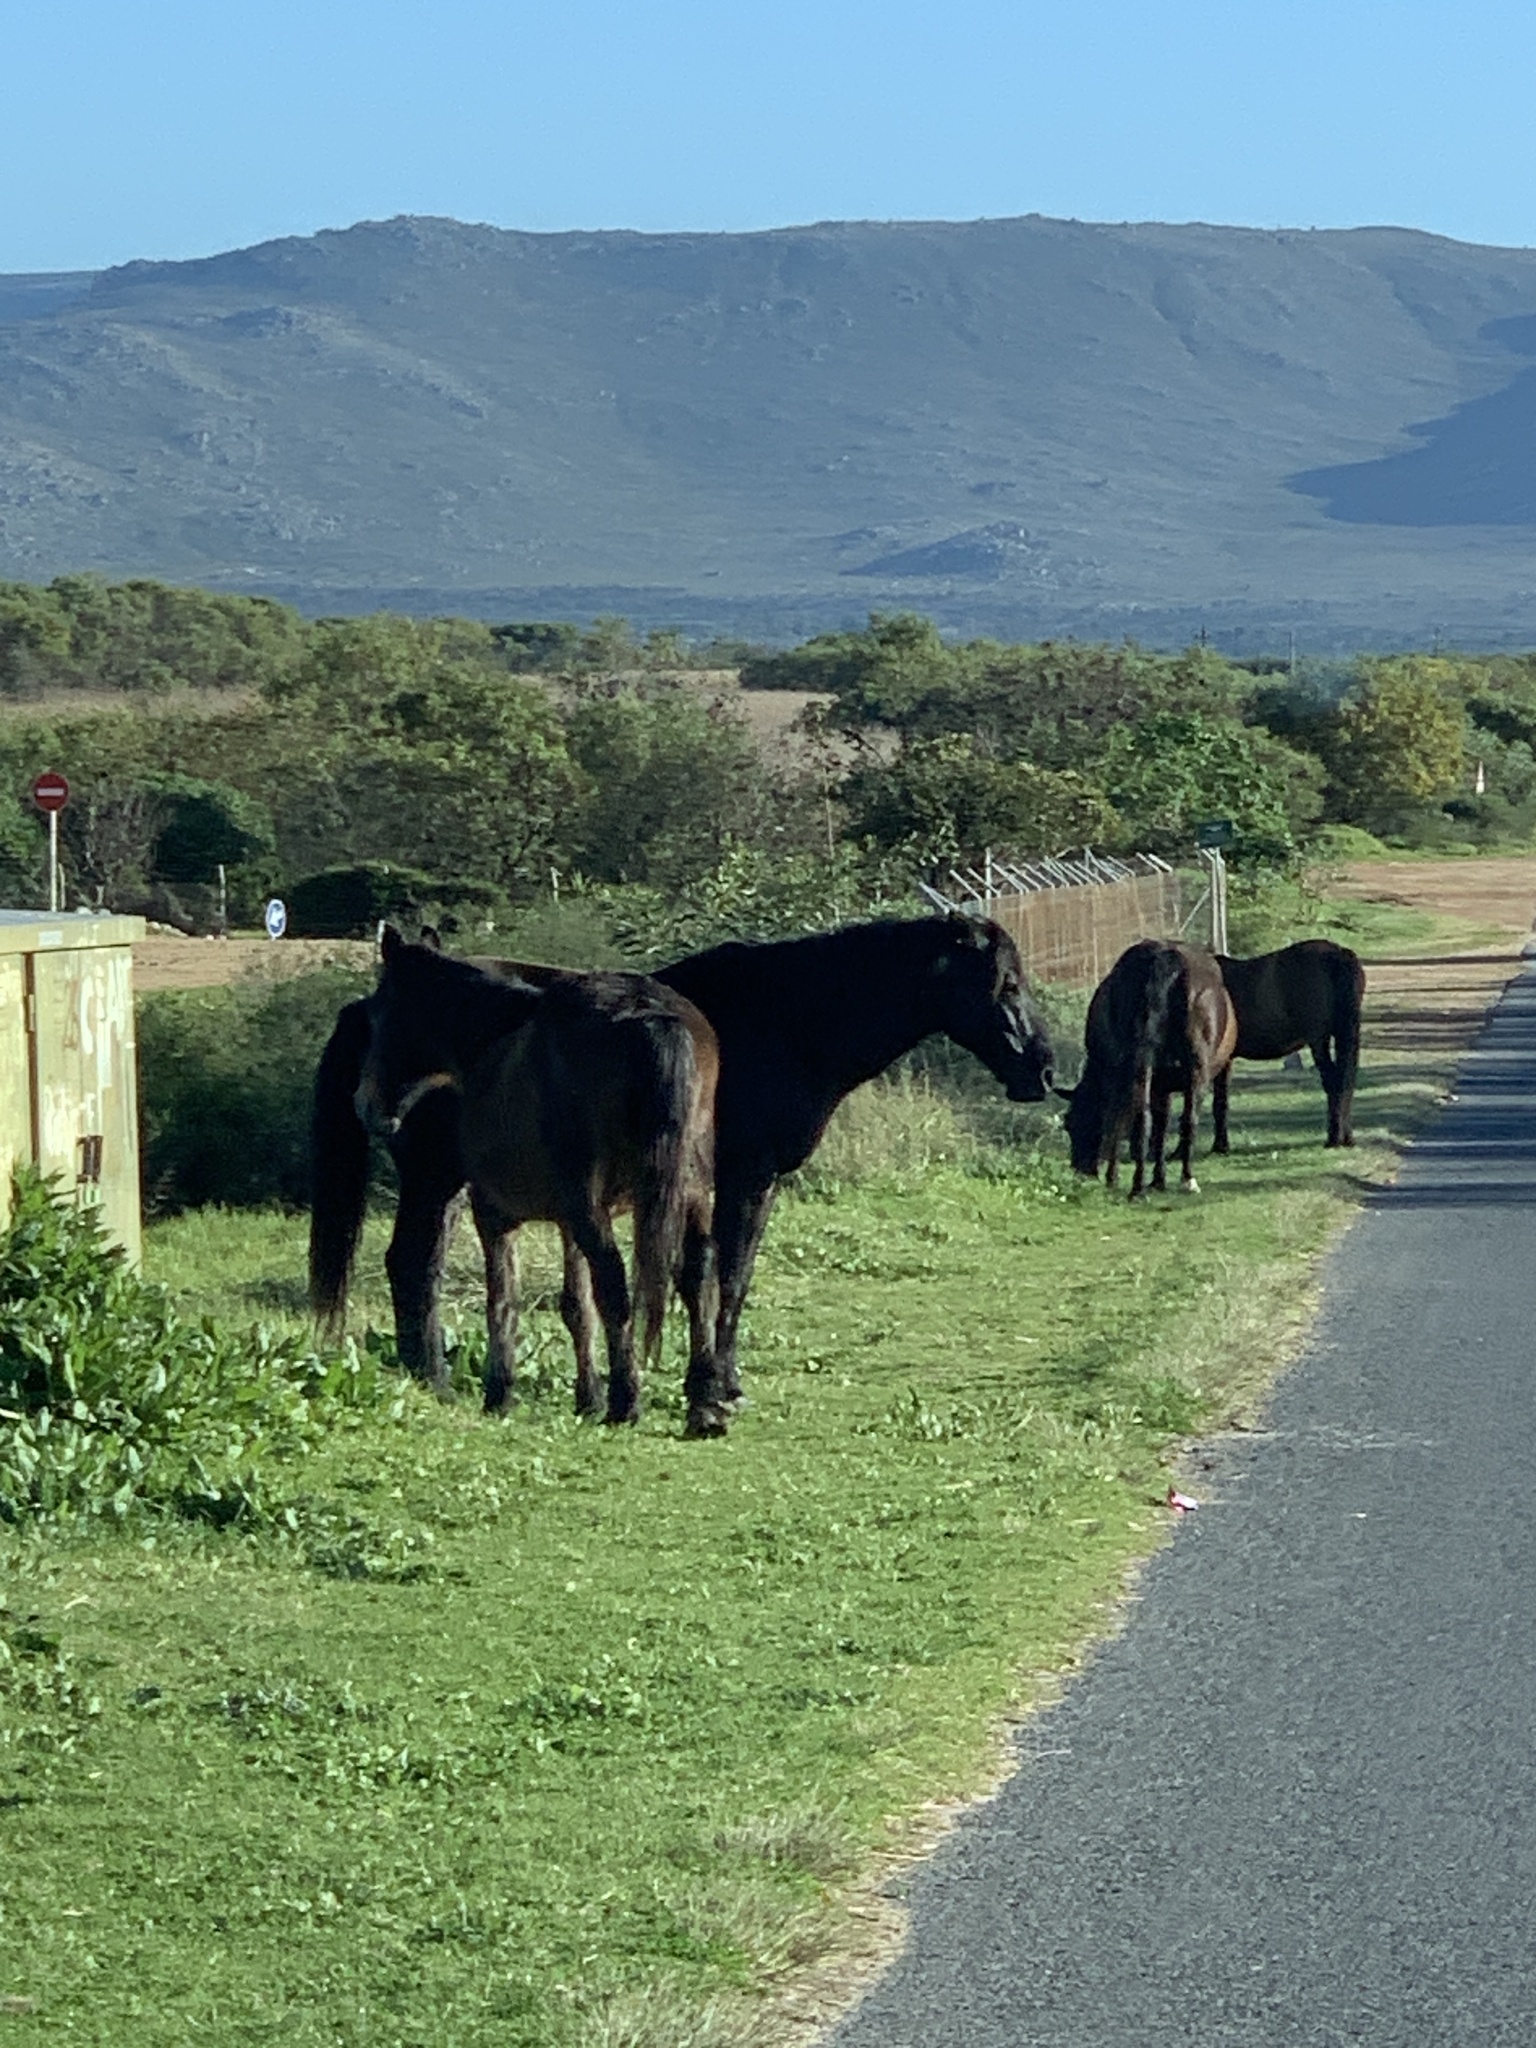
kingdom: Animalia
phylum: Chordata
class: Mammalia
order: Perissodactyla
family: Equidae
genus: Equus
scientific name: Equus caballus
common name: Horse
